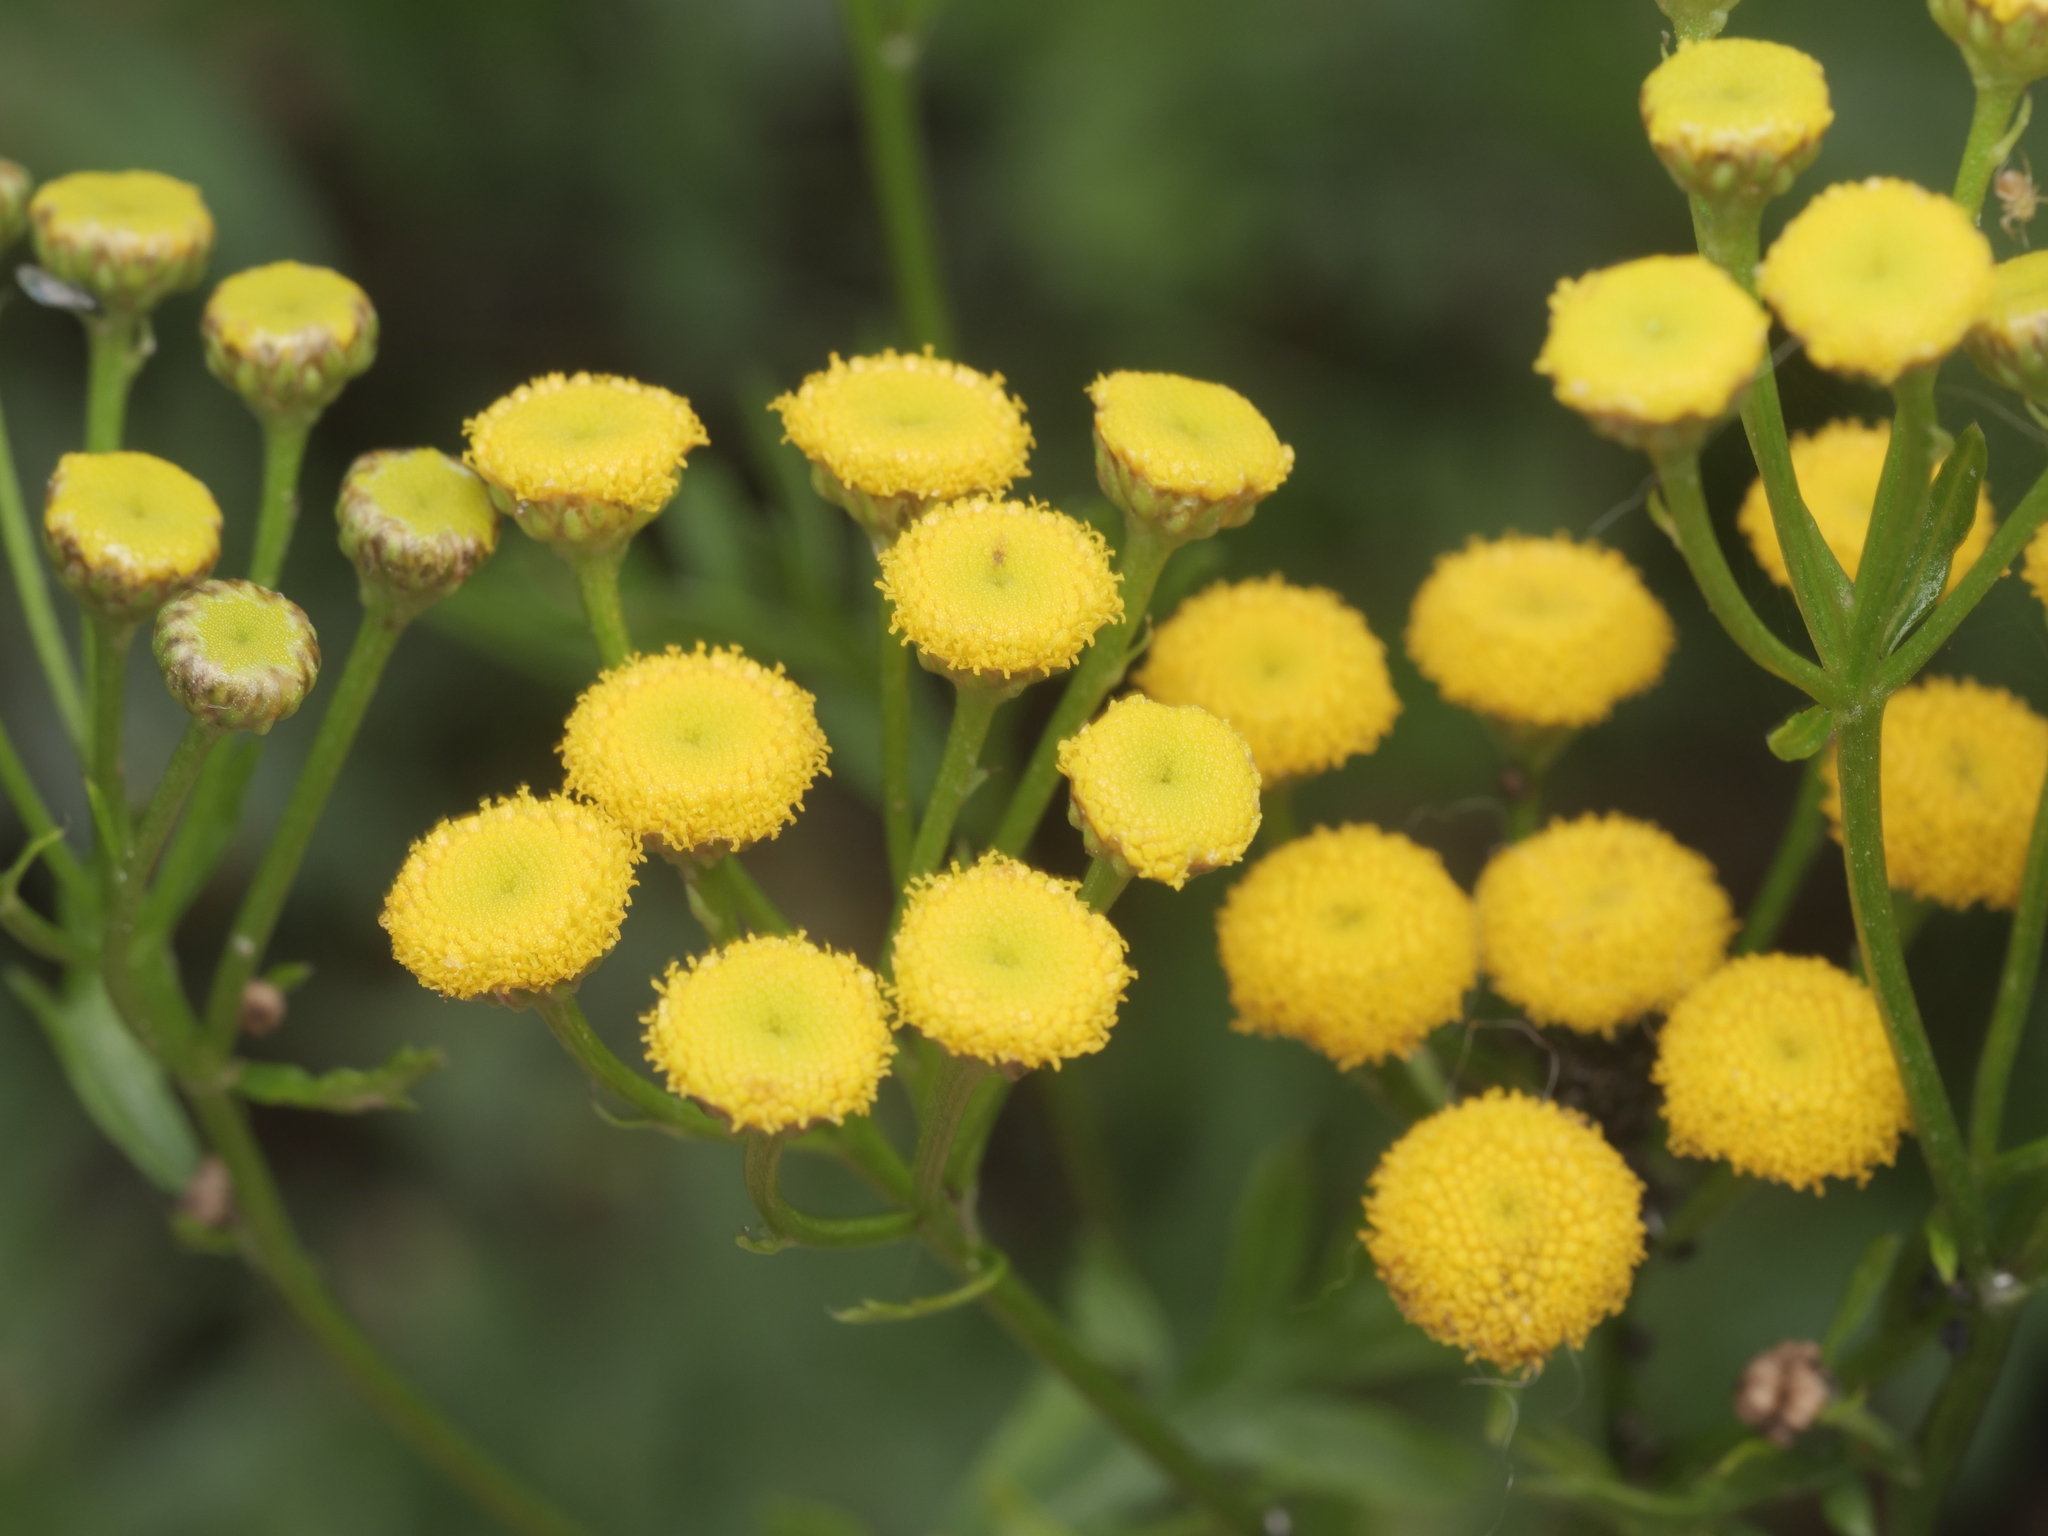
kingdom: Plantae
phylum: Tracheophyta
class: Magnoliopsida
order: Asterales
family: Asteraceae
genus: Tanacetum
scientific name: Tanacetum vulgare
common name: Common tansy
